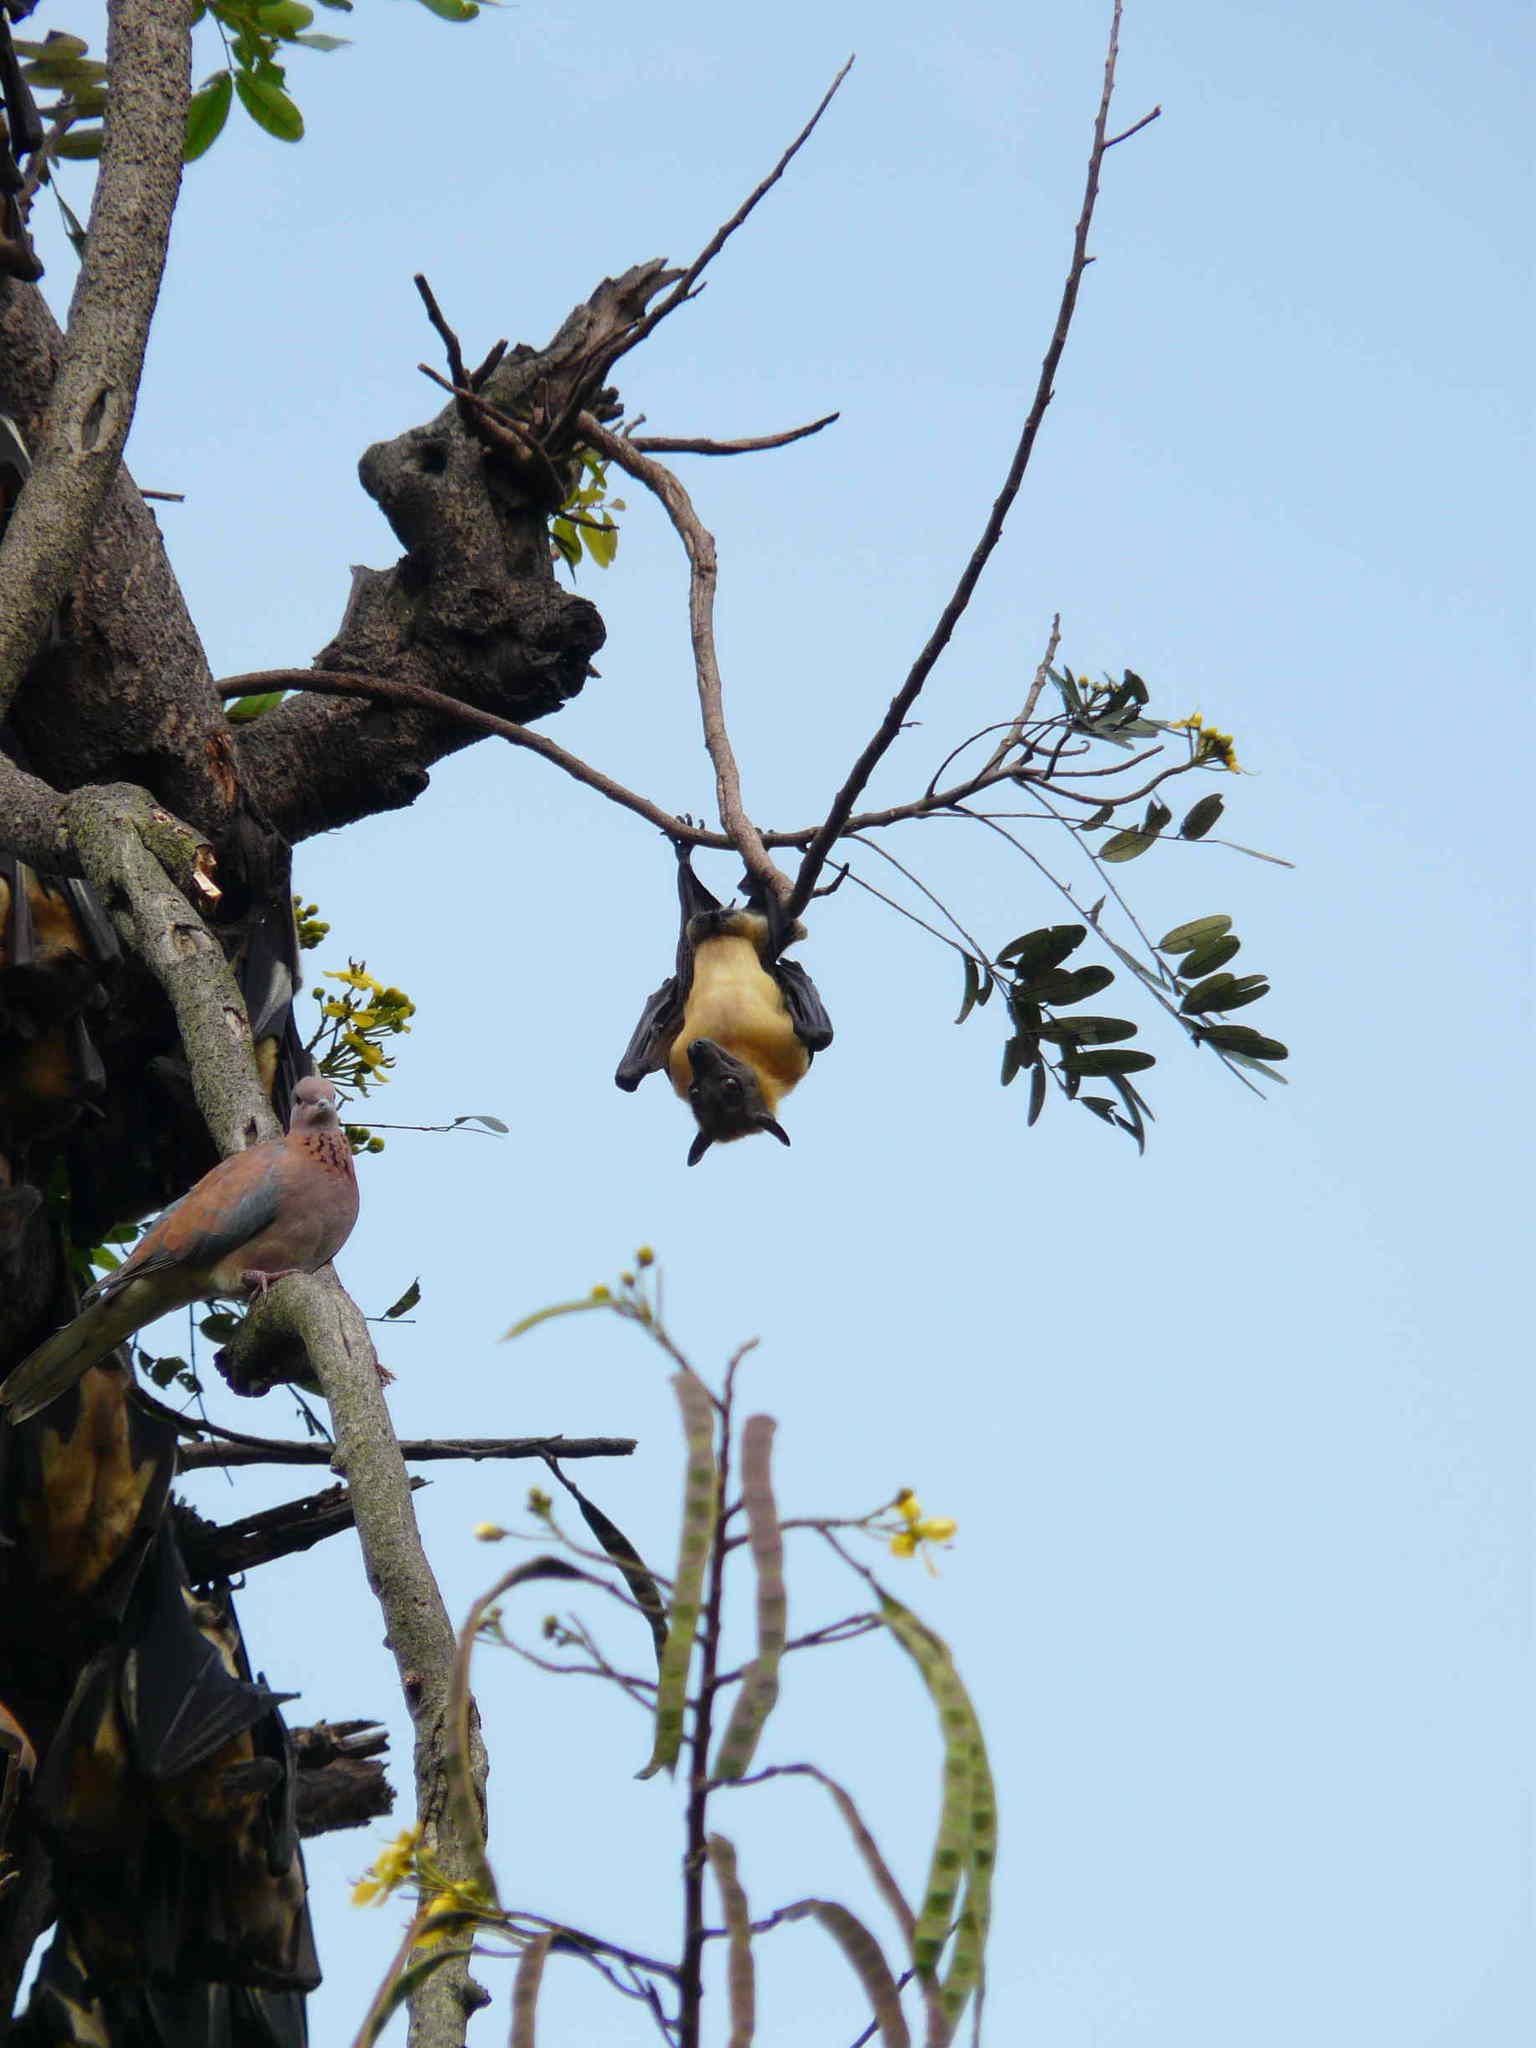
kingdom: Animalia
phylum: Chordata
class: Mammalia
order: Chiroptera
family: Pteropodidae
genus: Eidolon
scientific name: Eidolon helvum
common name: Straw-colored fruit bat
